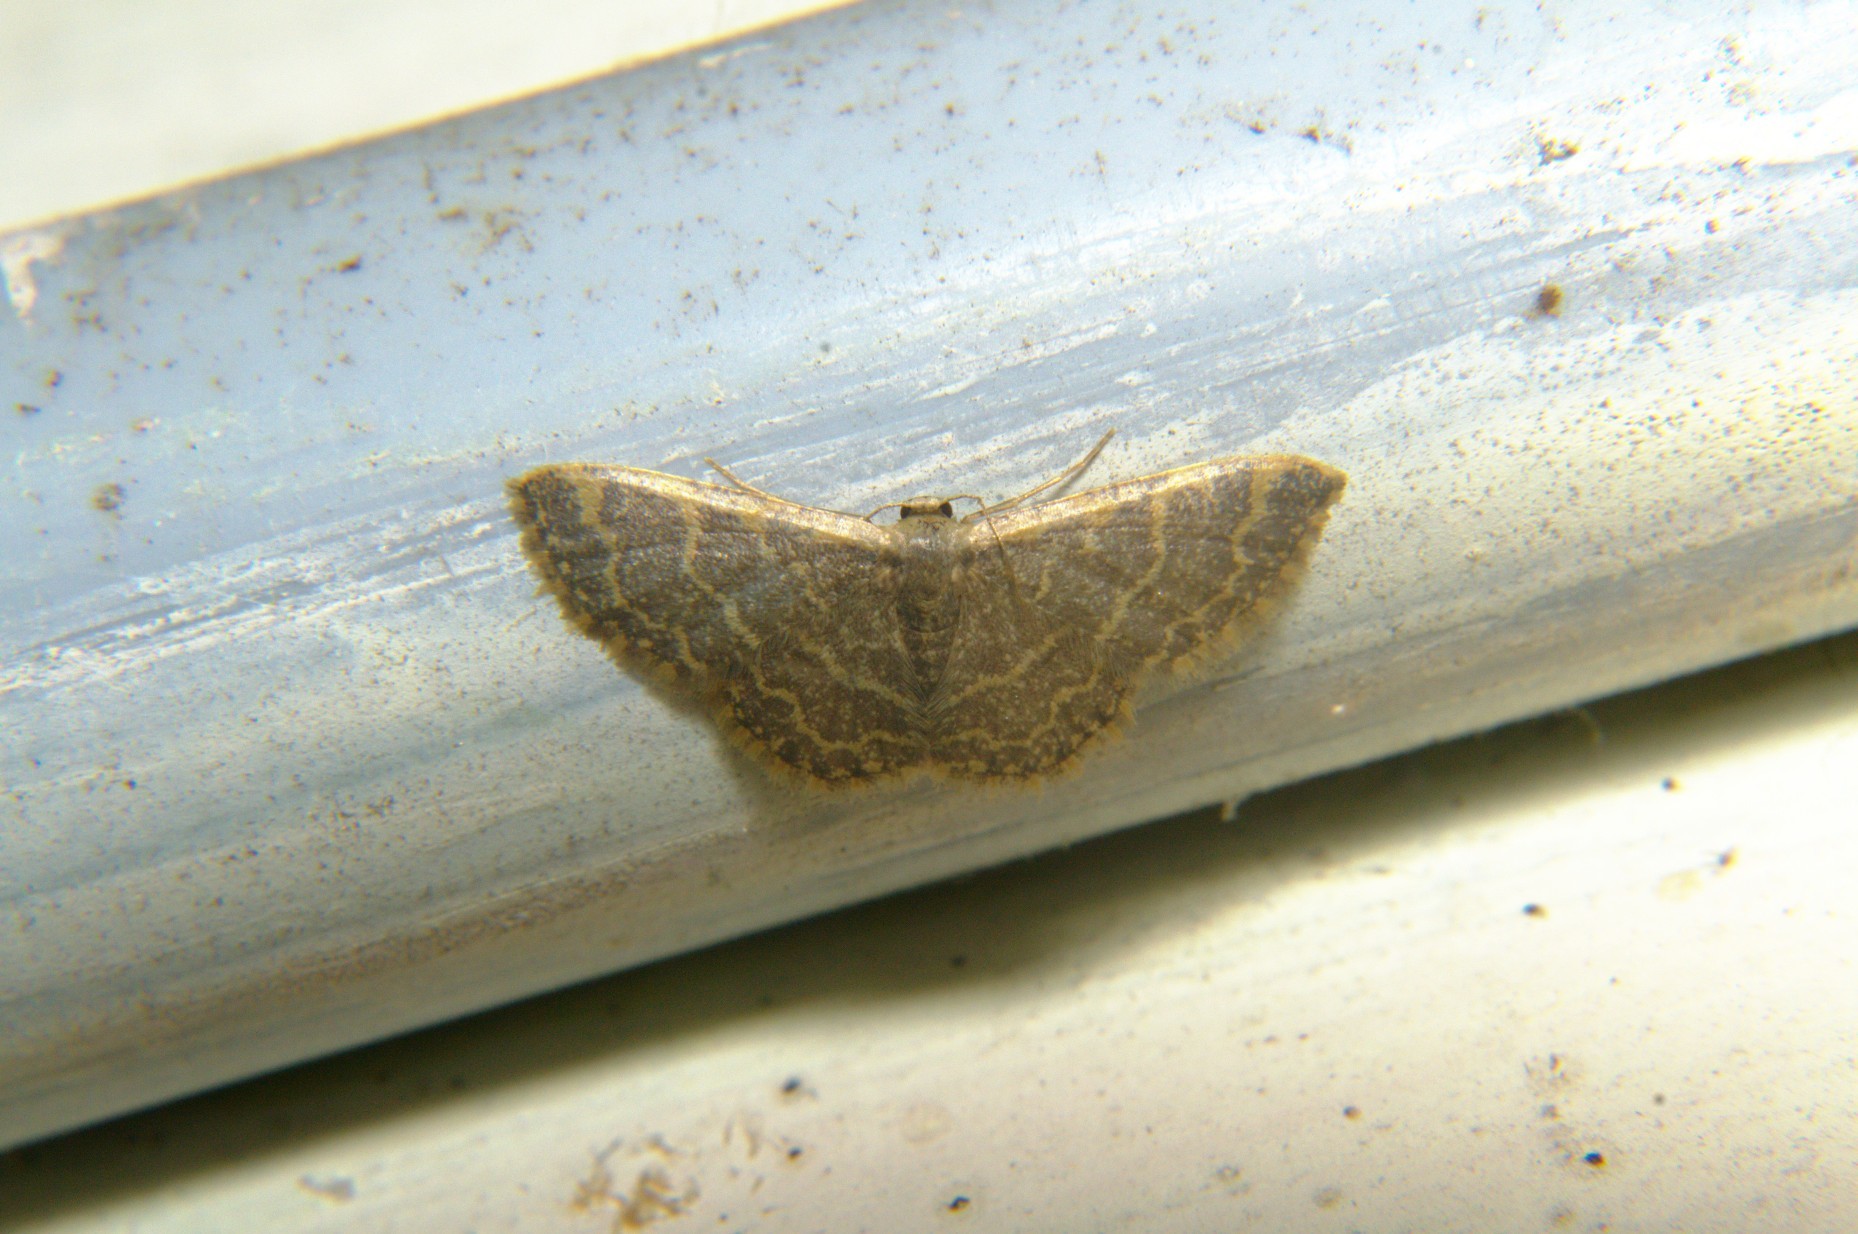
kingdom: Animalia
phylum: Arthropoda
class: Insecta
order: Lepidoptera
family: Geometridae
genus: Idaea
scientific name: Idaea costiguttata
